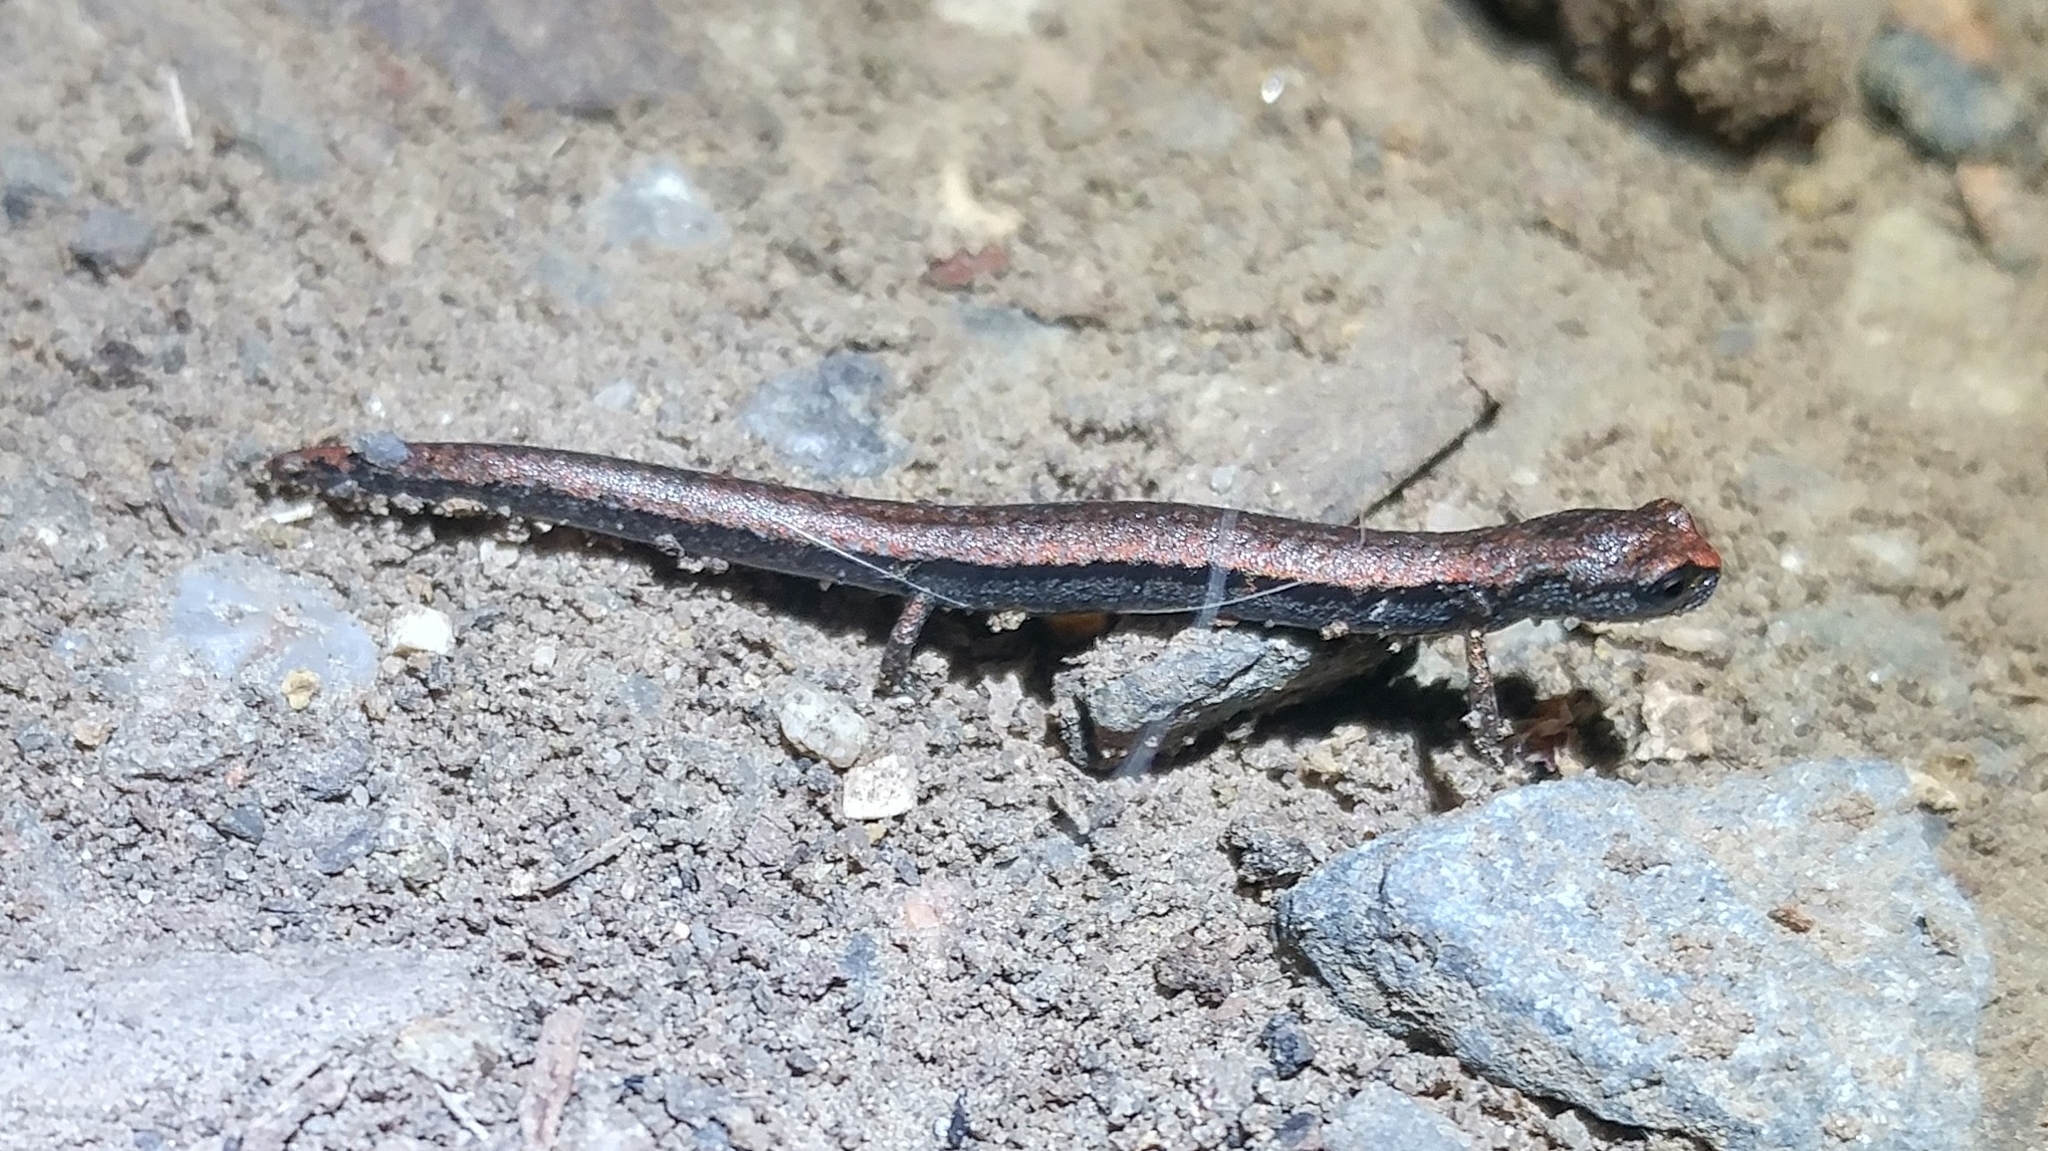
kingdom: Animalia
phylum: Chordata
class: Amphibia
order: Caudata
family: Plethodontidae
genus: Batrachoseps
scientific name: Batrachoseps nigriventris
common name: Black-bellied slender salamander
